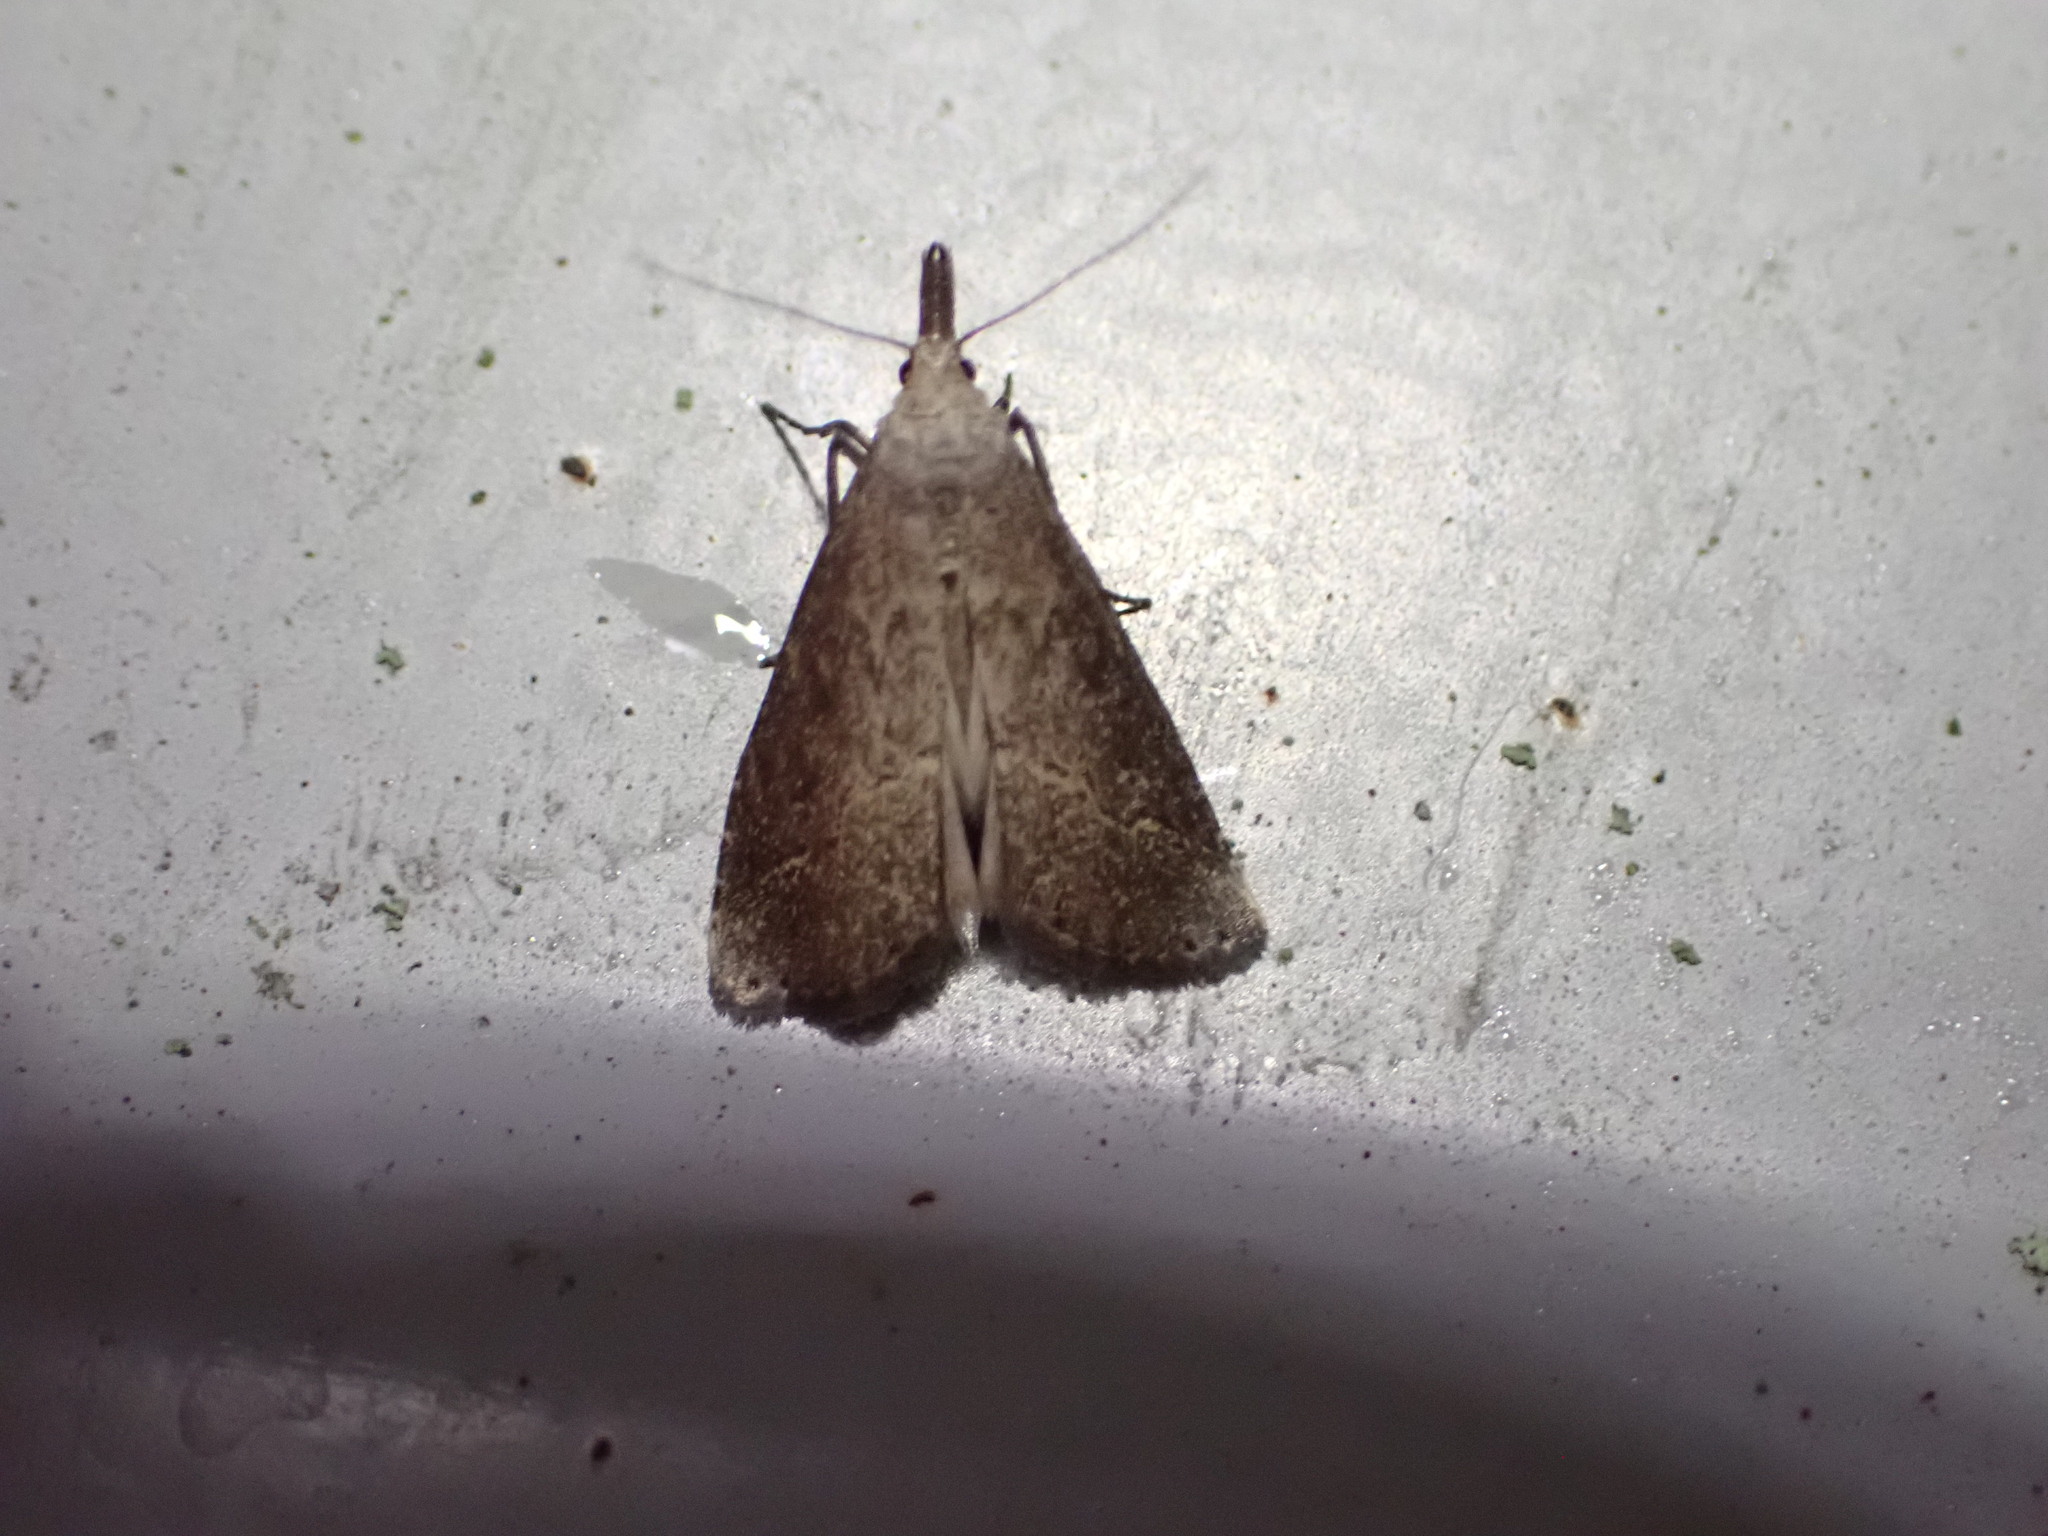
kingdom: Animalia
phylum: Arthropoda
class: Insecta
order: Lepidoptera
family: Erebidae
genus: Schrankia
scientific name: Schrankia costaestrigalis
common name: Pinion-streaked snout
